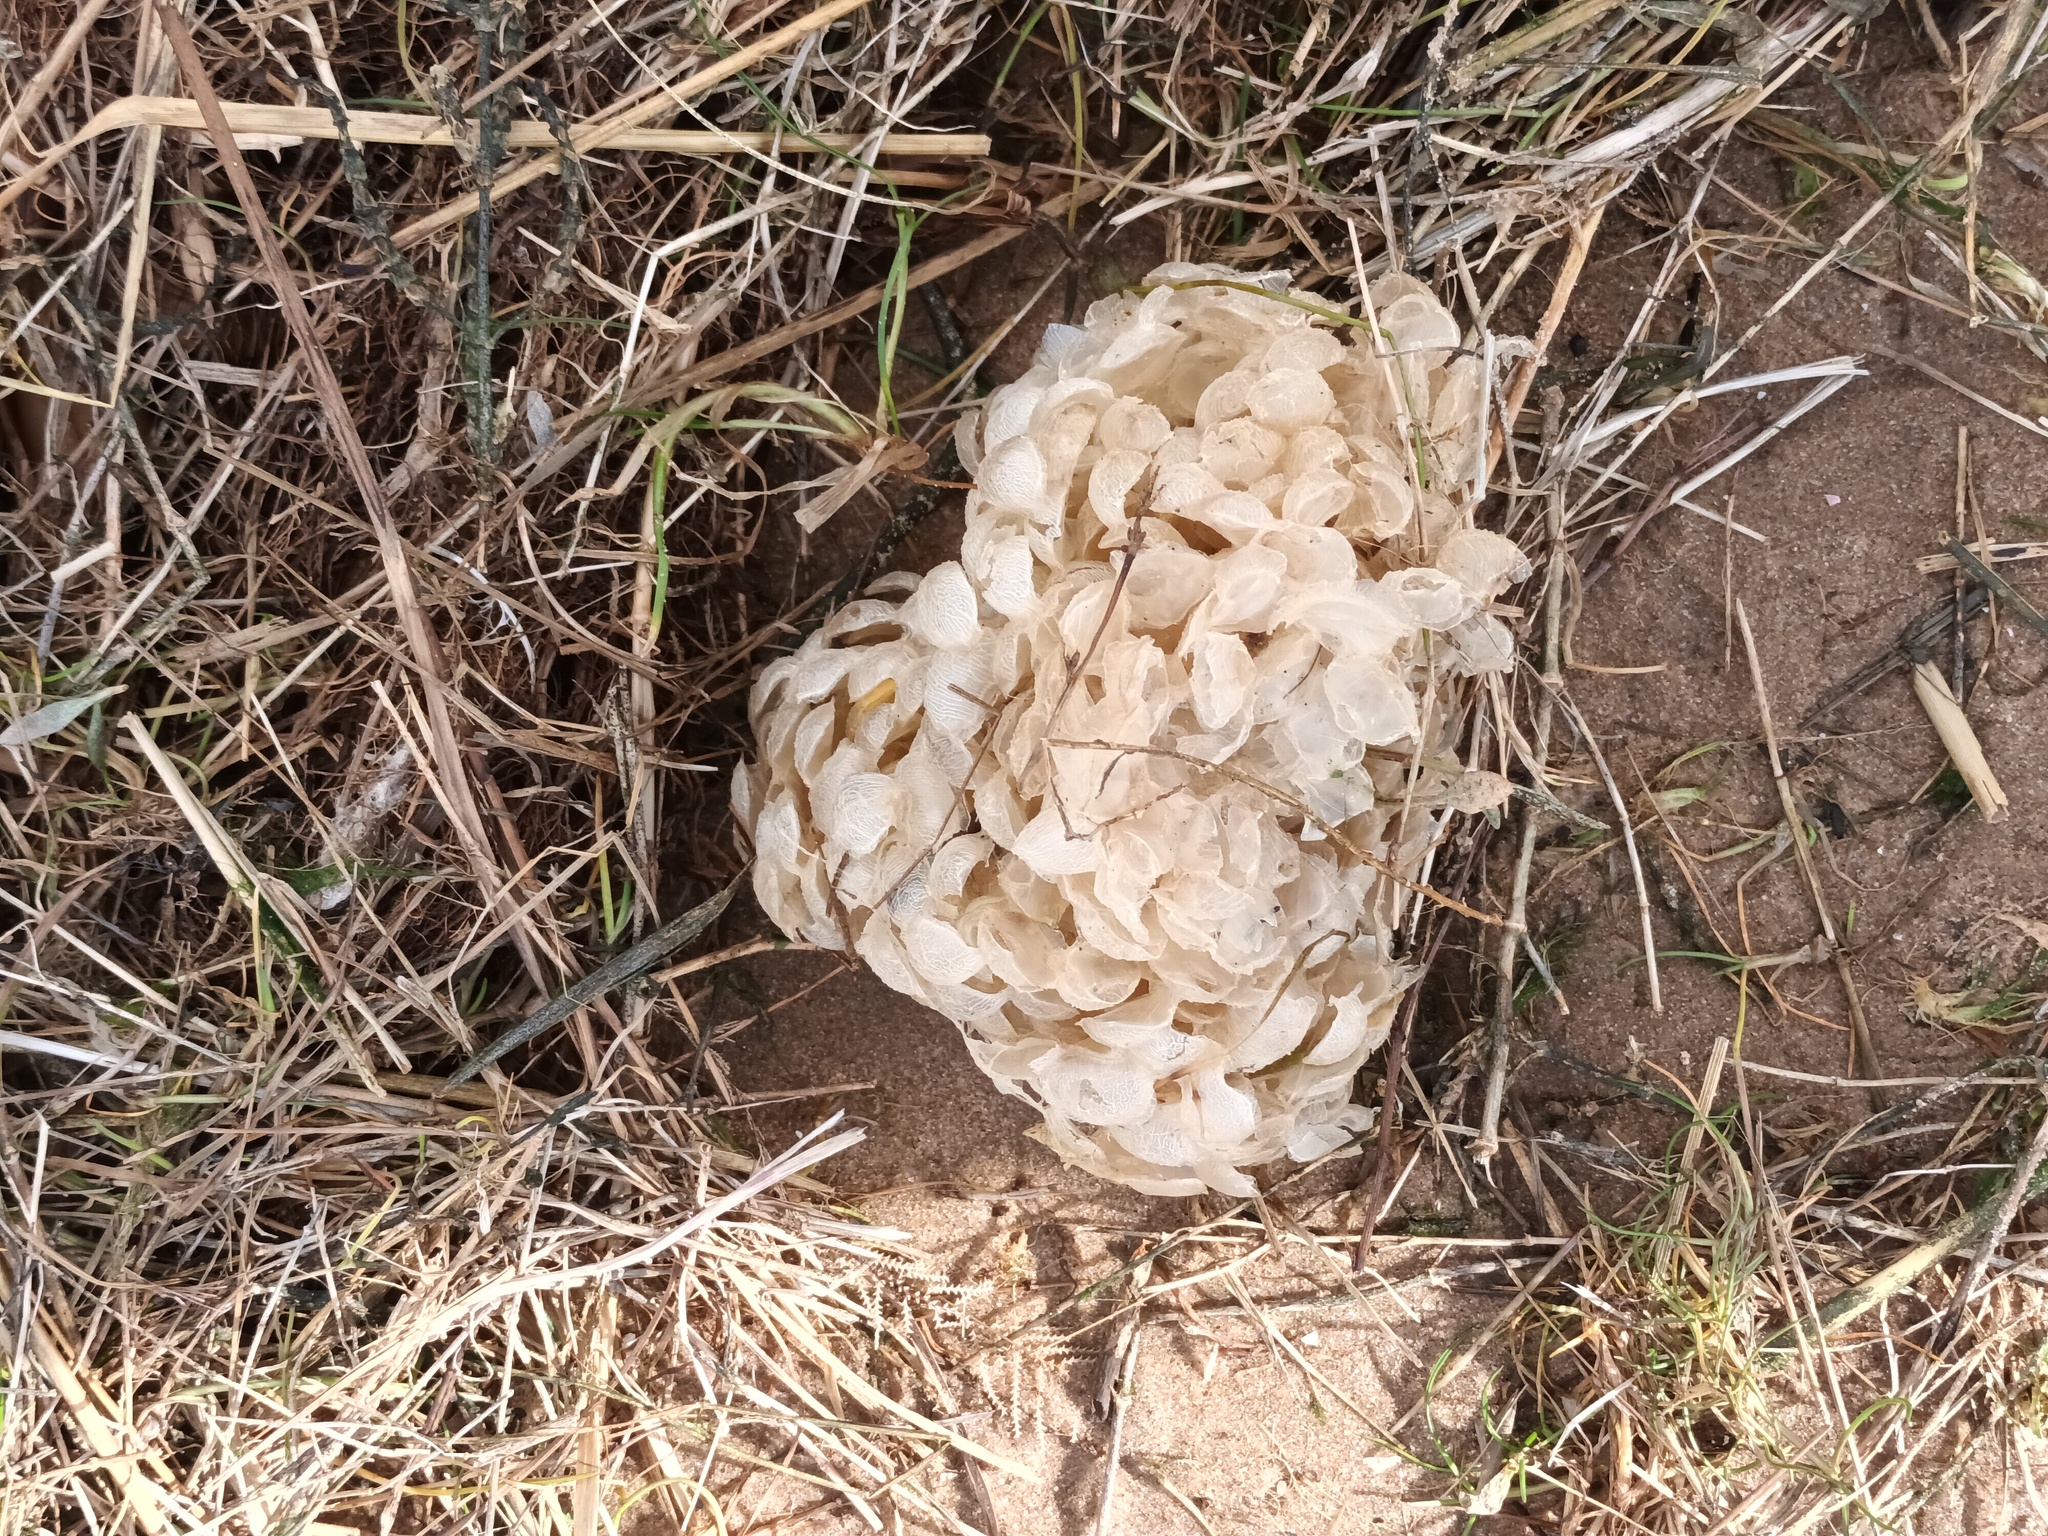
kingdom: Animalia
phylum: Mollusca
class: Gastropoda
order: Neogastropoda
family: Buccinidae
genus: Buccinum
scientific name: Buccinum undatum
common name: Common whelk
